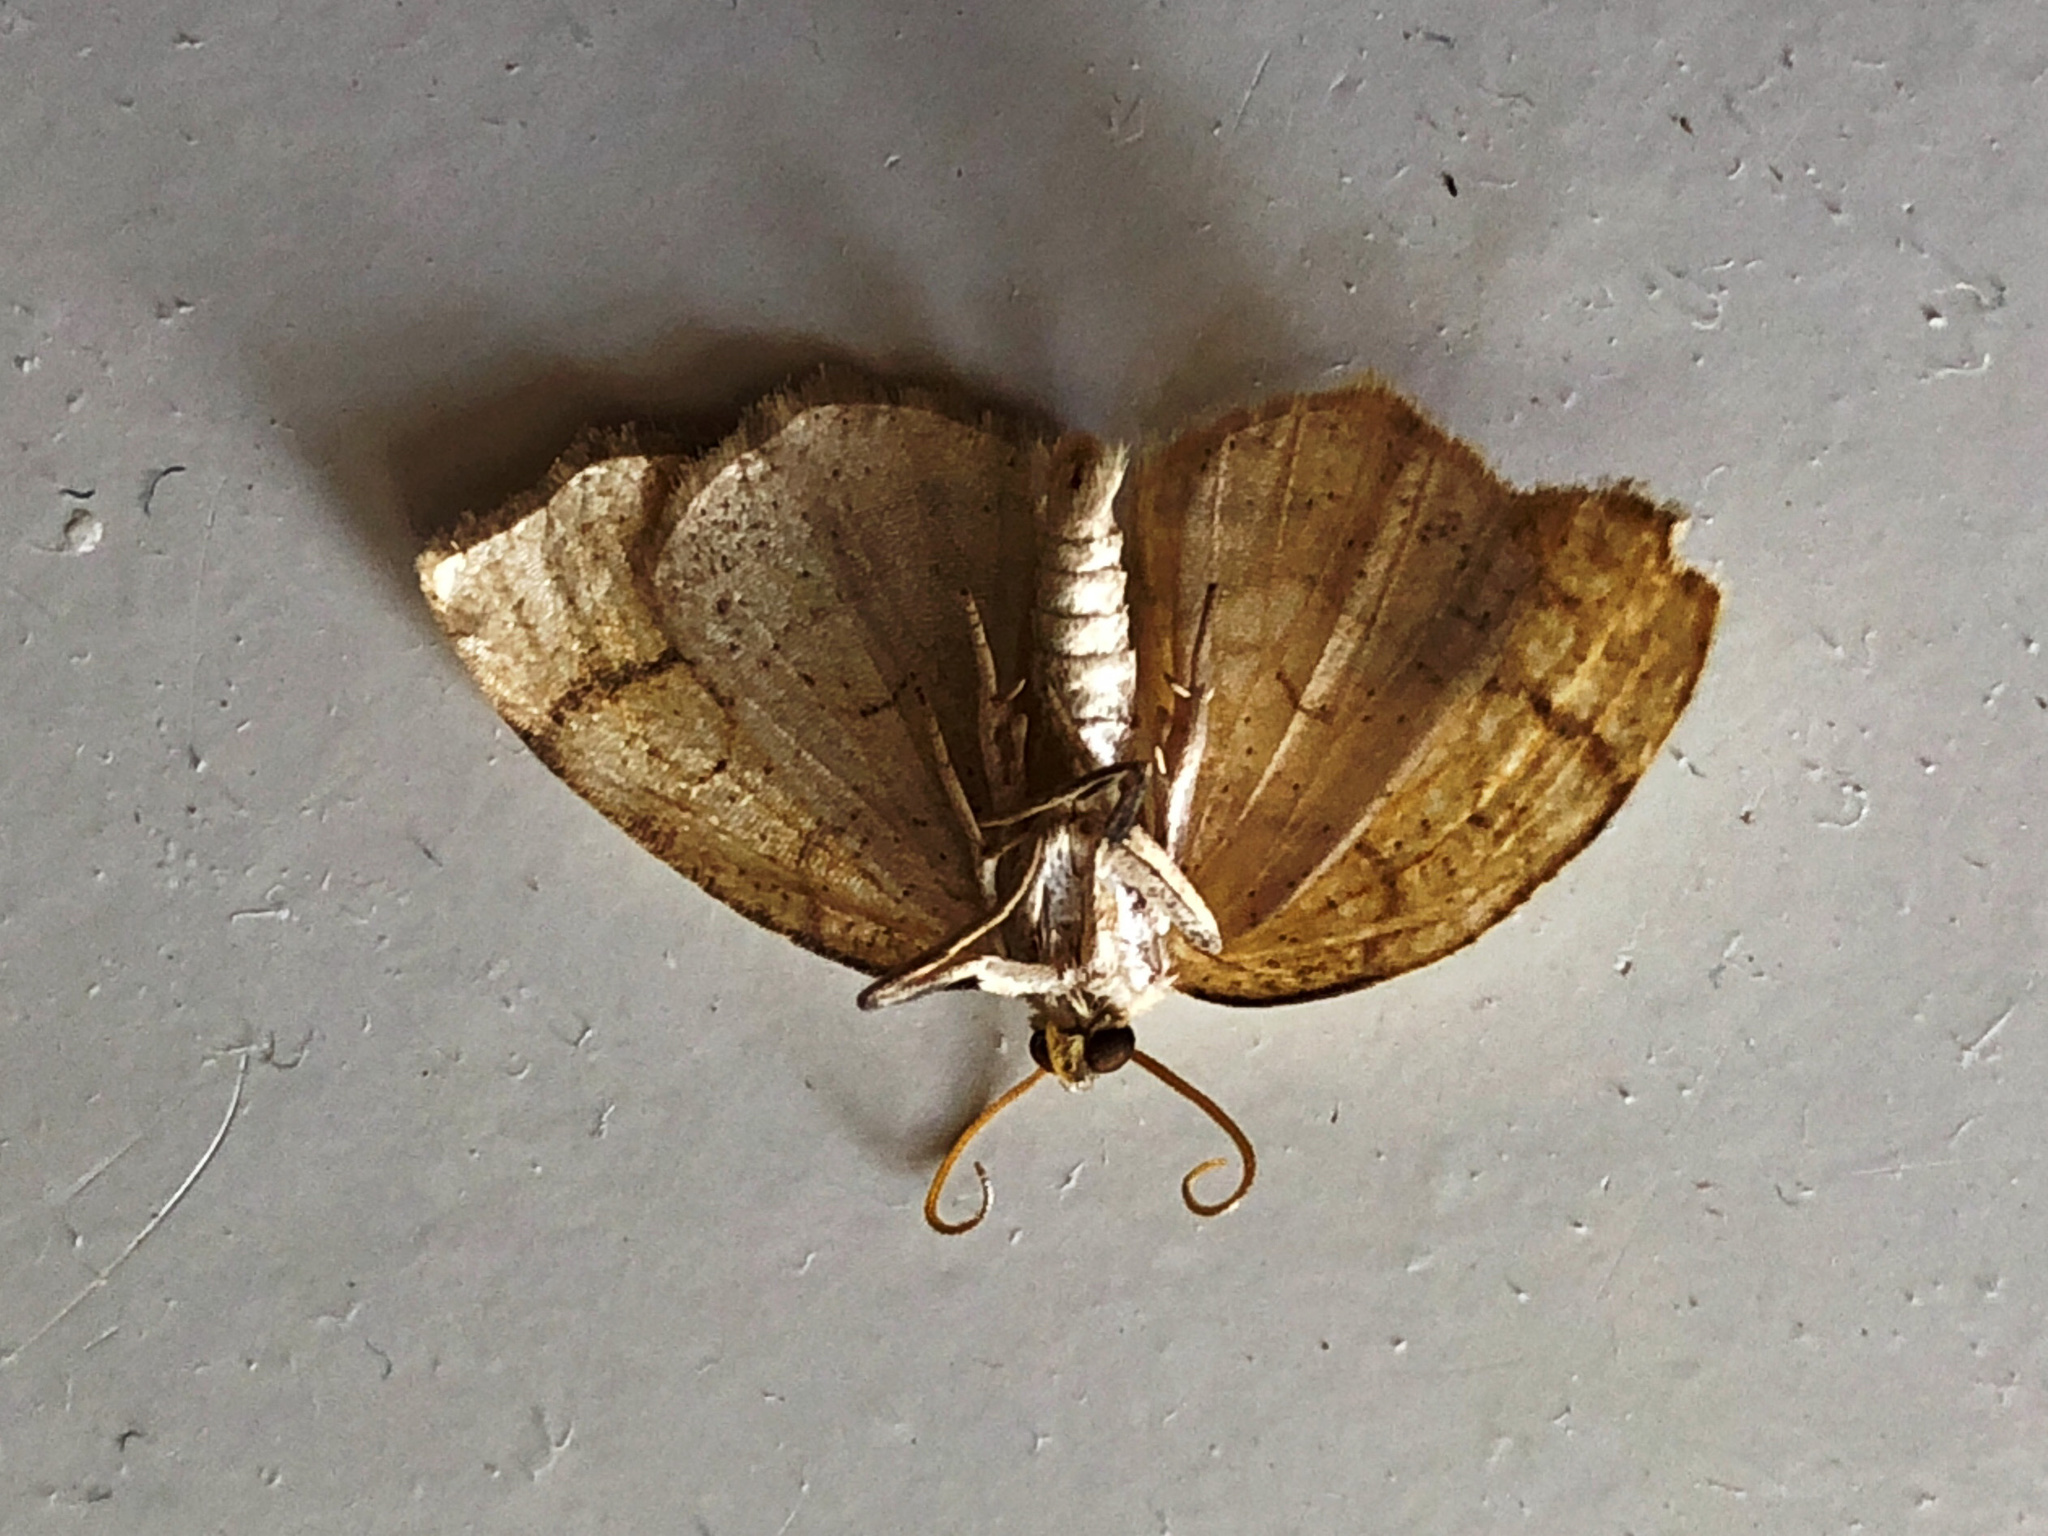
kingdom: Animalia
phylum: Arthropoda
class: Insecta
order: Lepidoptera
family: Geometridae
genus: Nematocampa
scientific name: Nematocampa resistaria
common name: Horned spanworm moth
